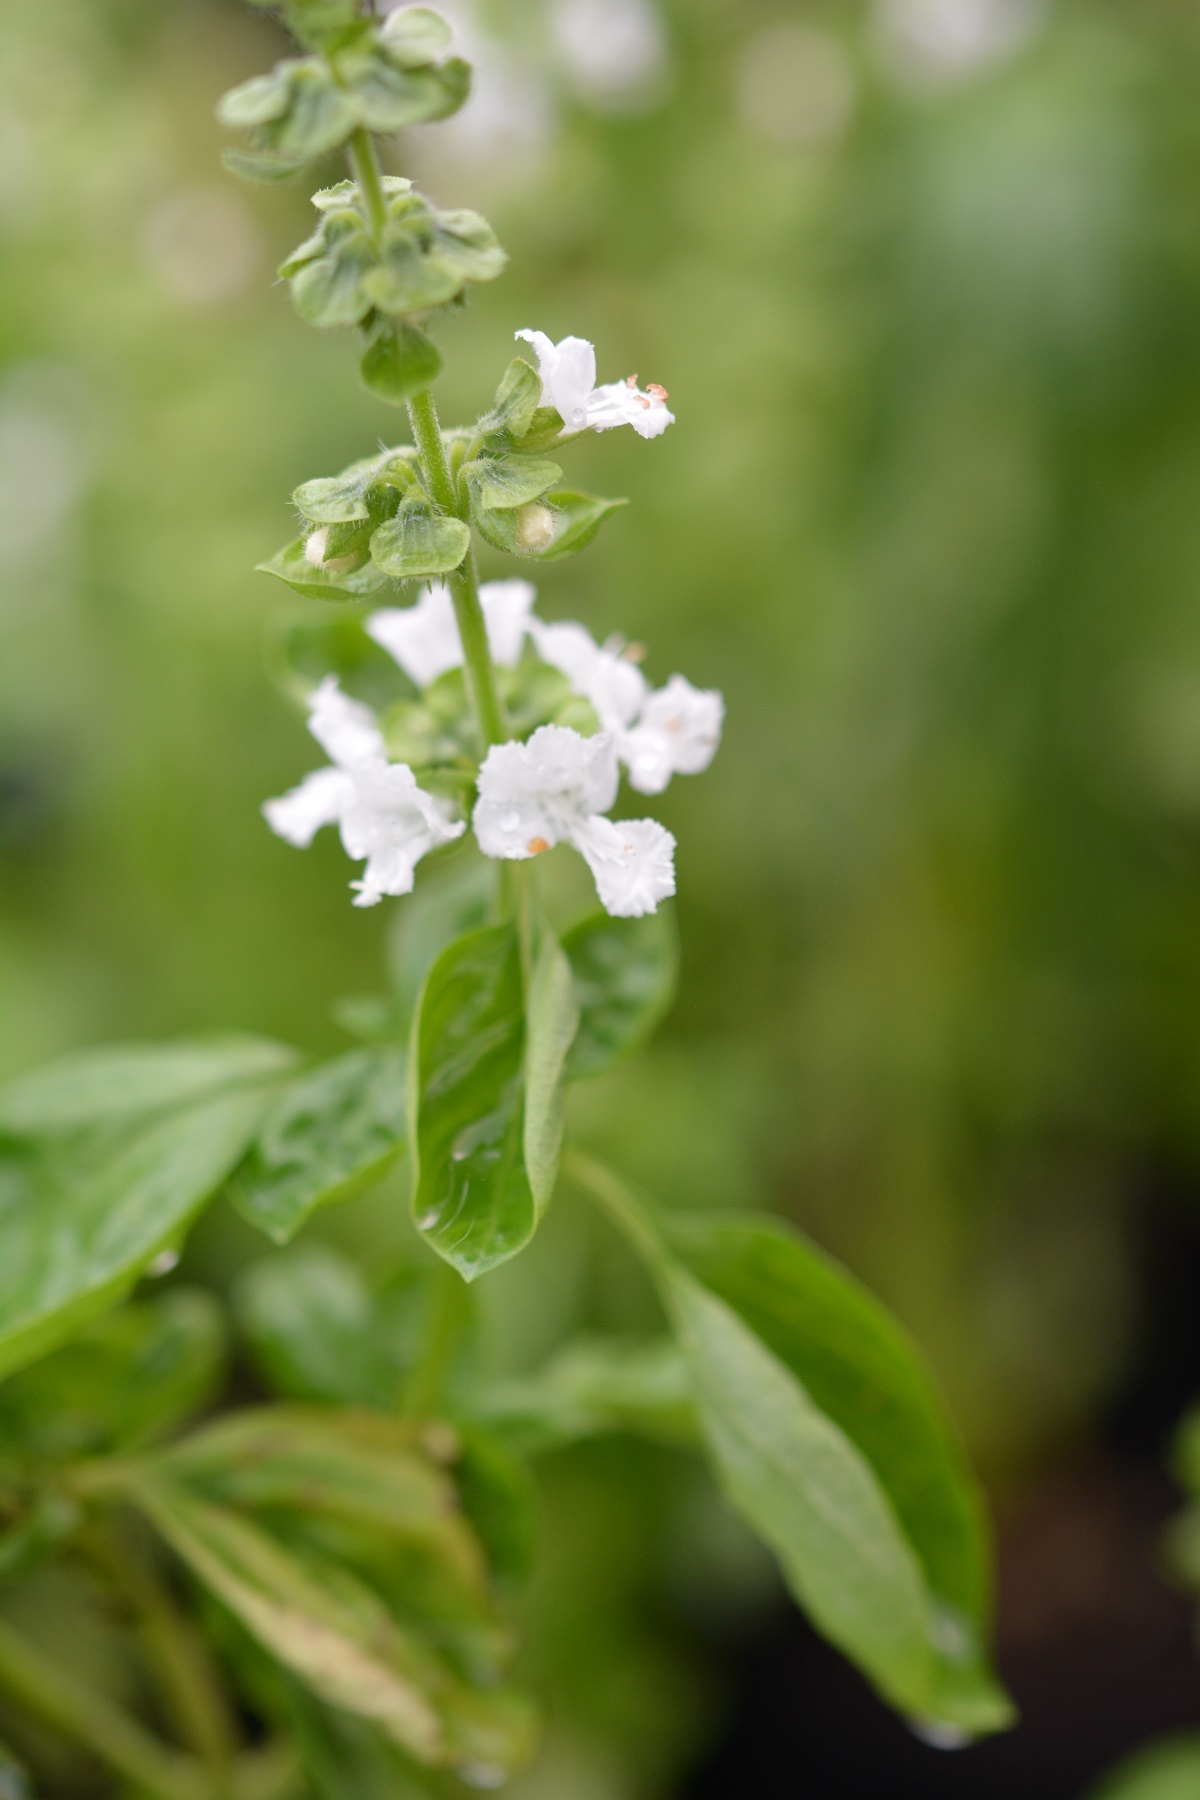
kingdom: Plantae
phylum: Tracheophyta
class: Magnoliopsida
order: Lamiales
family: Lamiaceae
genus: Ocimum
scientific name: Ocimum basilicum
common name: Sweet basil
